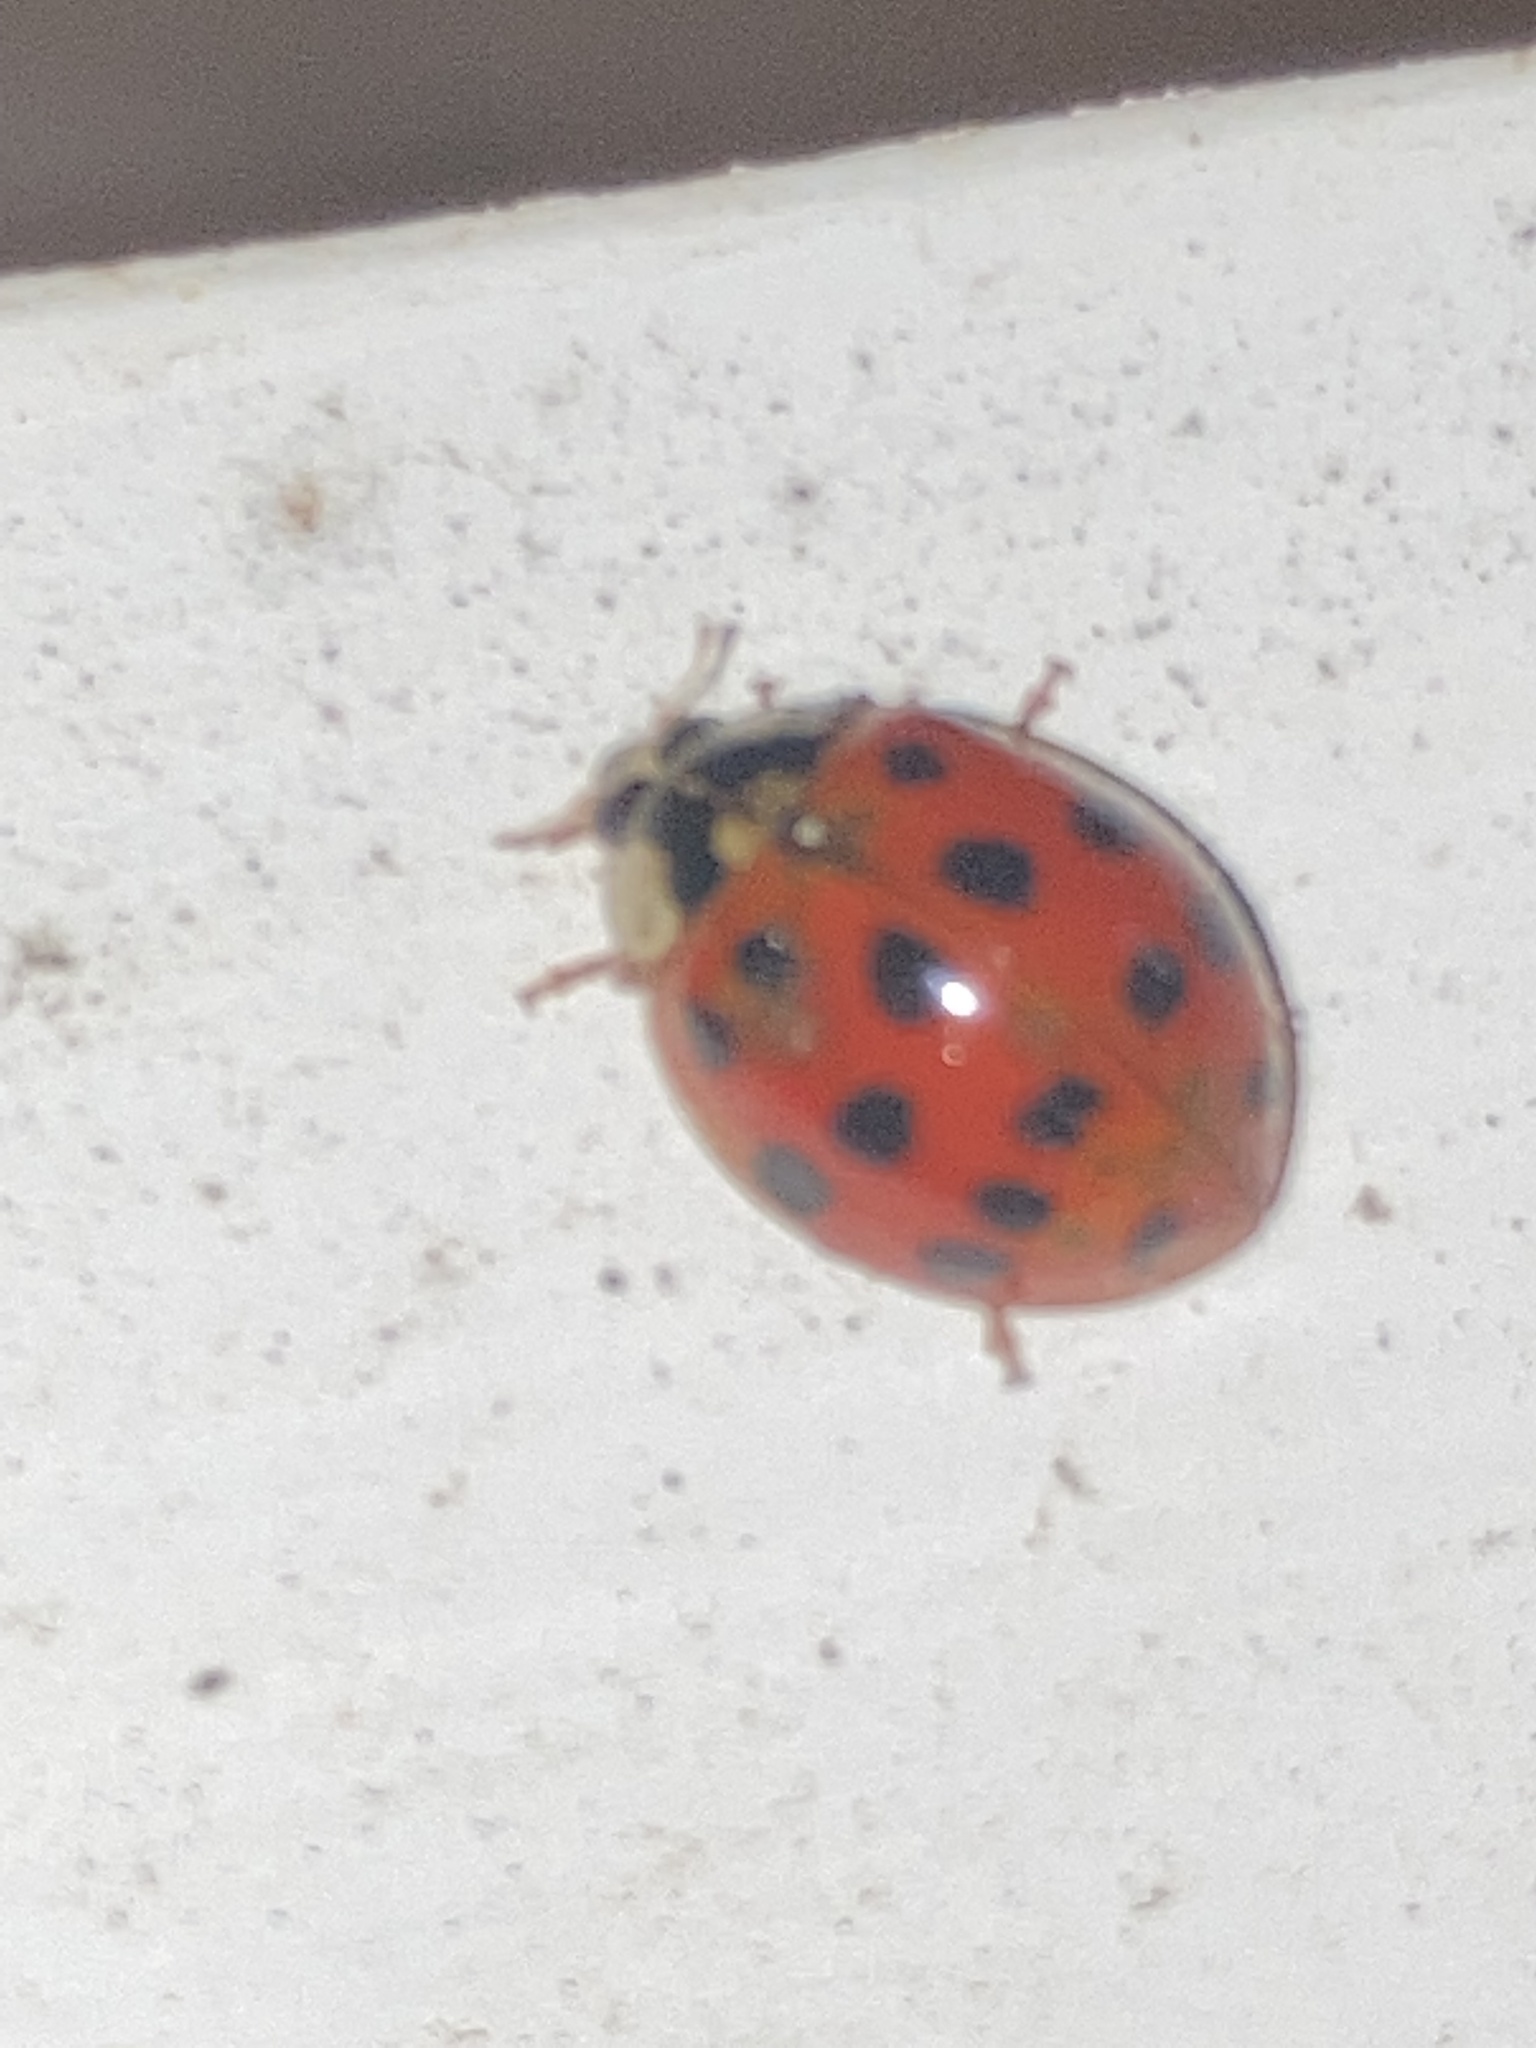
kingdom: Animalia
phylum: Arthropoda
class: Insecta
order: Coleoptera
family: Coccinellidae
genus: Harmonia
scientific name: Harmonia axyridis
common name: Harlequin ladybird
